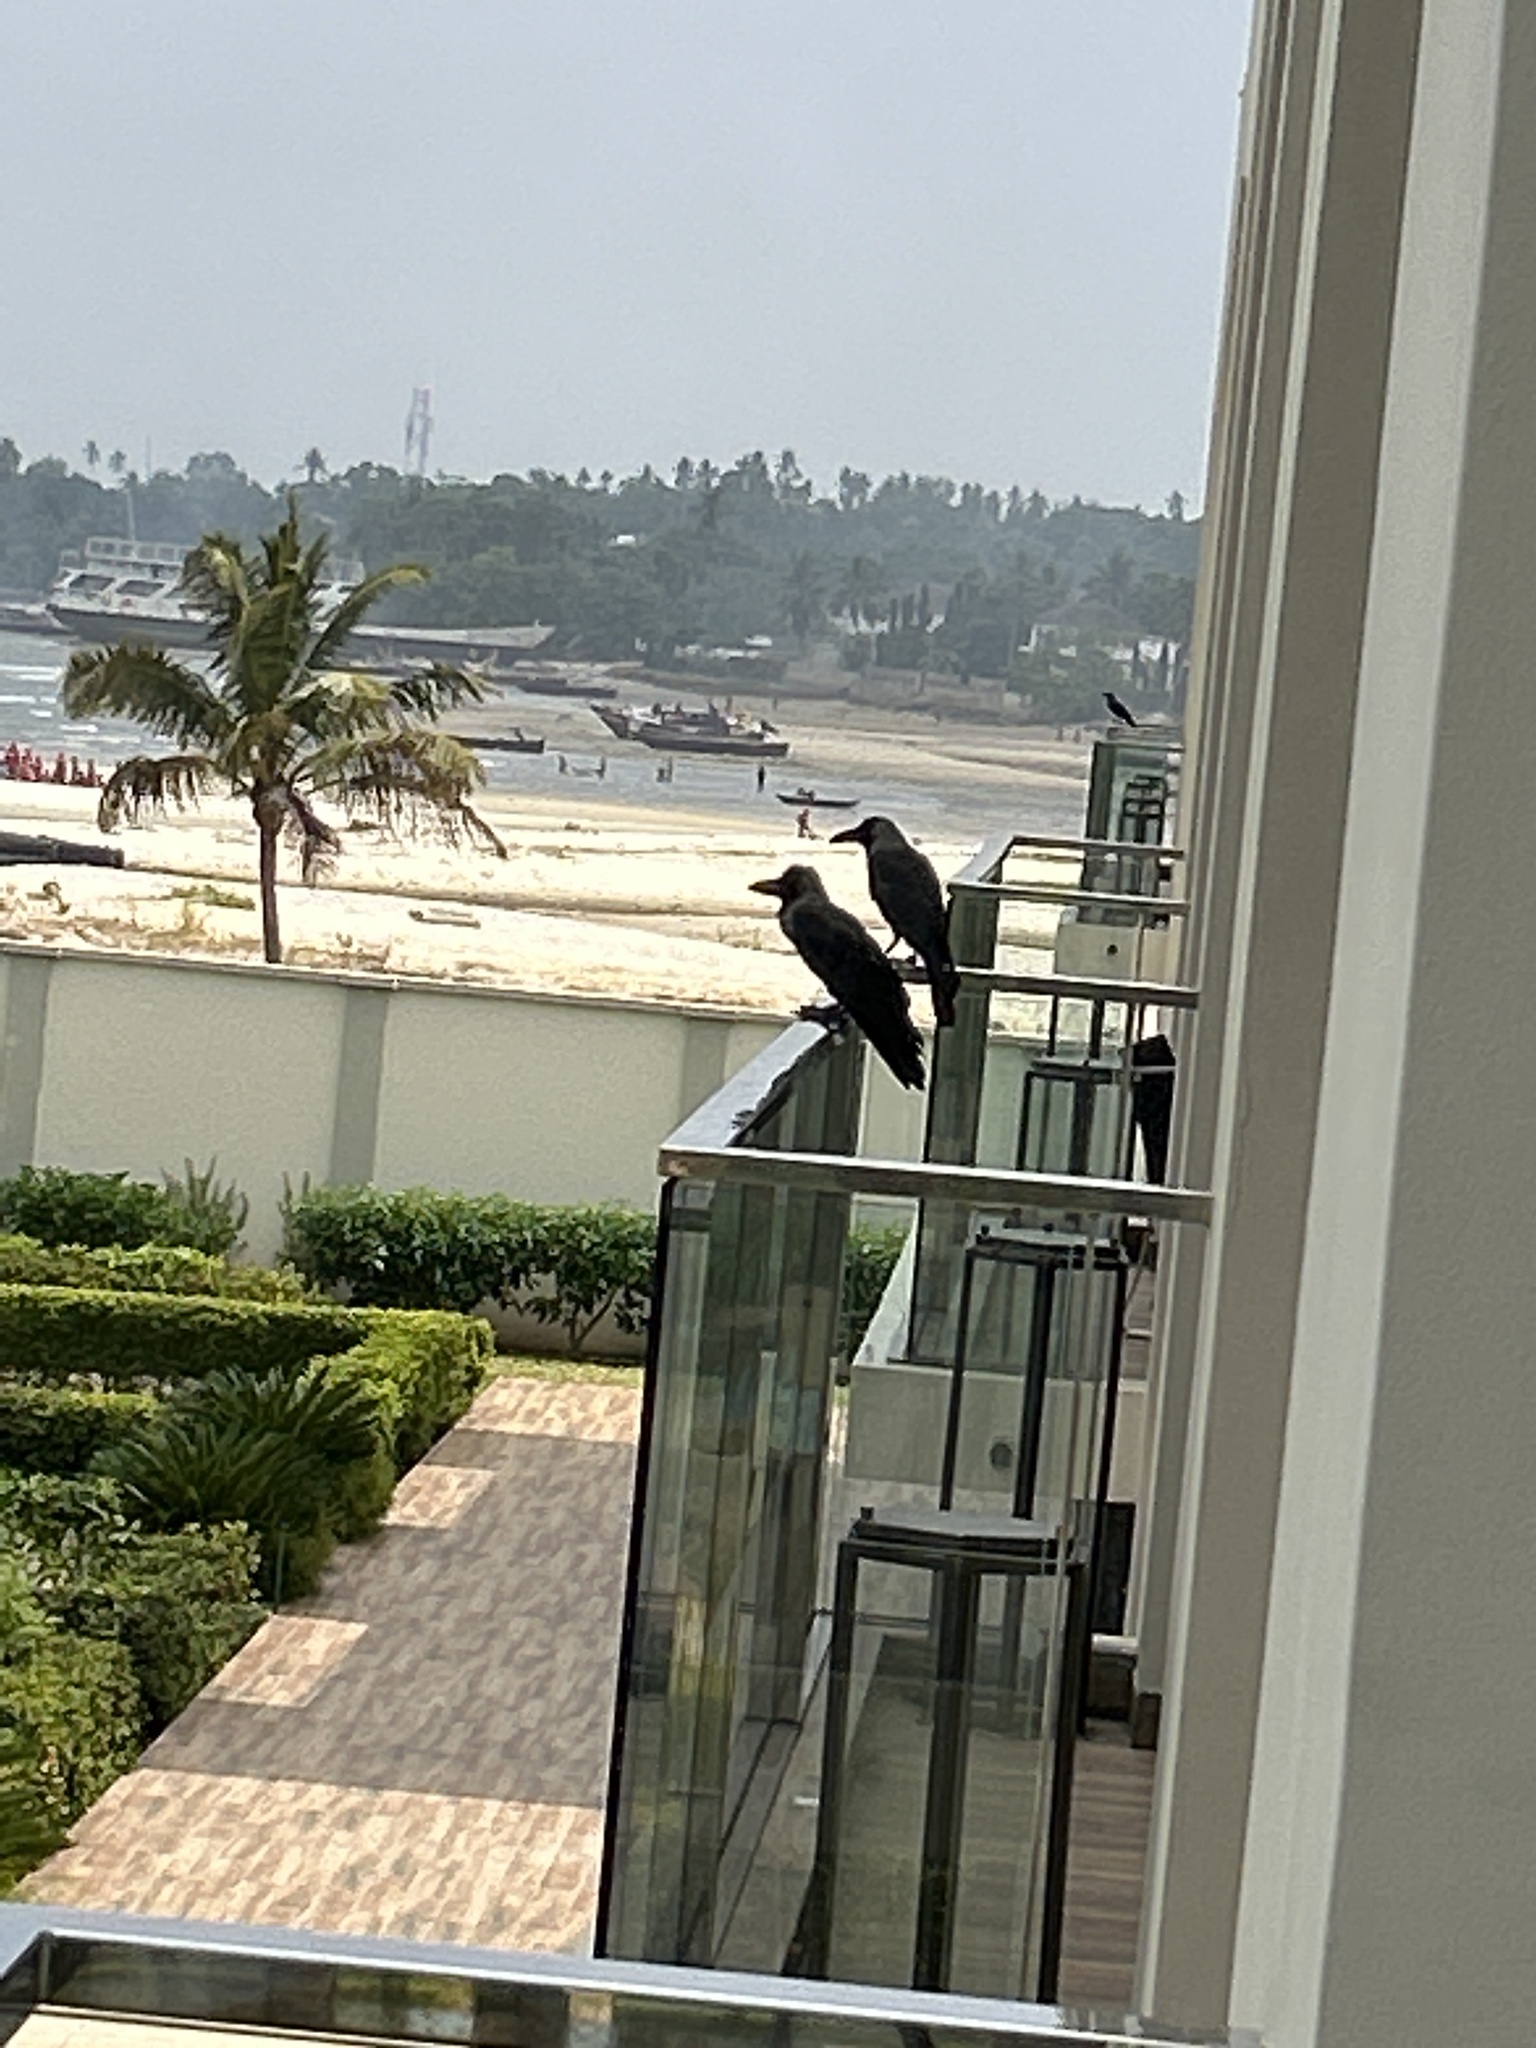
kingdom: Animalia
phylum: Chordata
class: Aves
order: Passeriformes
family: Corvidae
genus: Corvus
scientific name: Corvus splendens
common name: House crow
